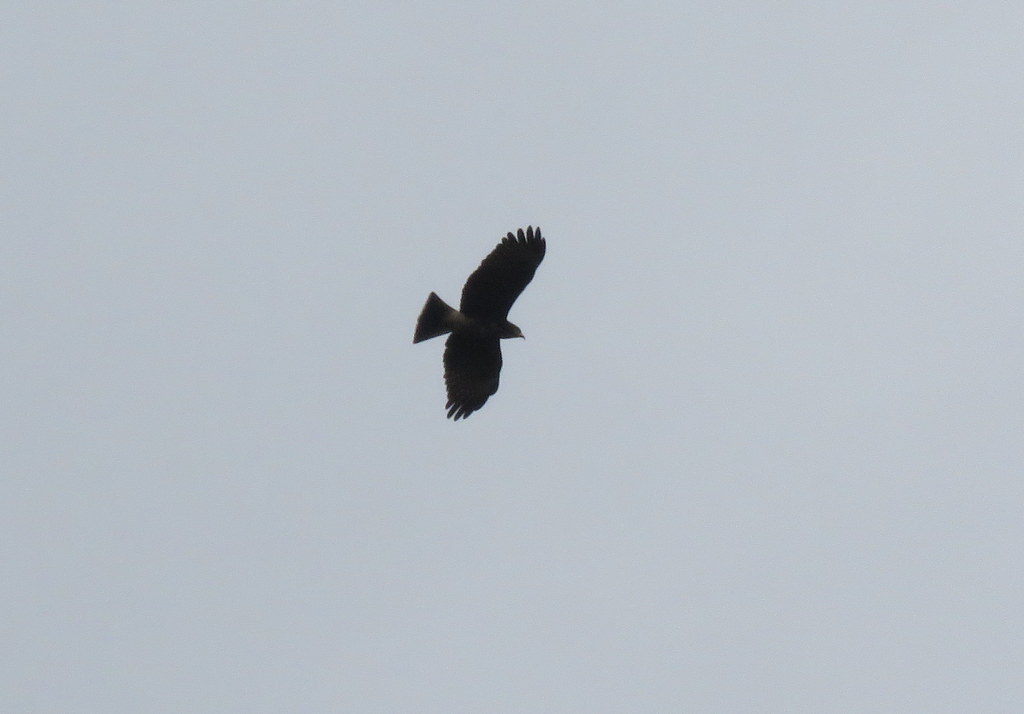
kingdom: Animalia
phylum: Chordata
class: Aves
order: Accipitriformes
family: Accipitridae
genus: Rostrhamus
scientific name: Rostrhamus sociabilis
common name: Snail kite
